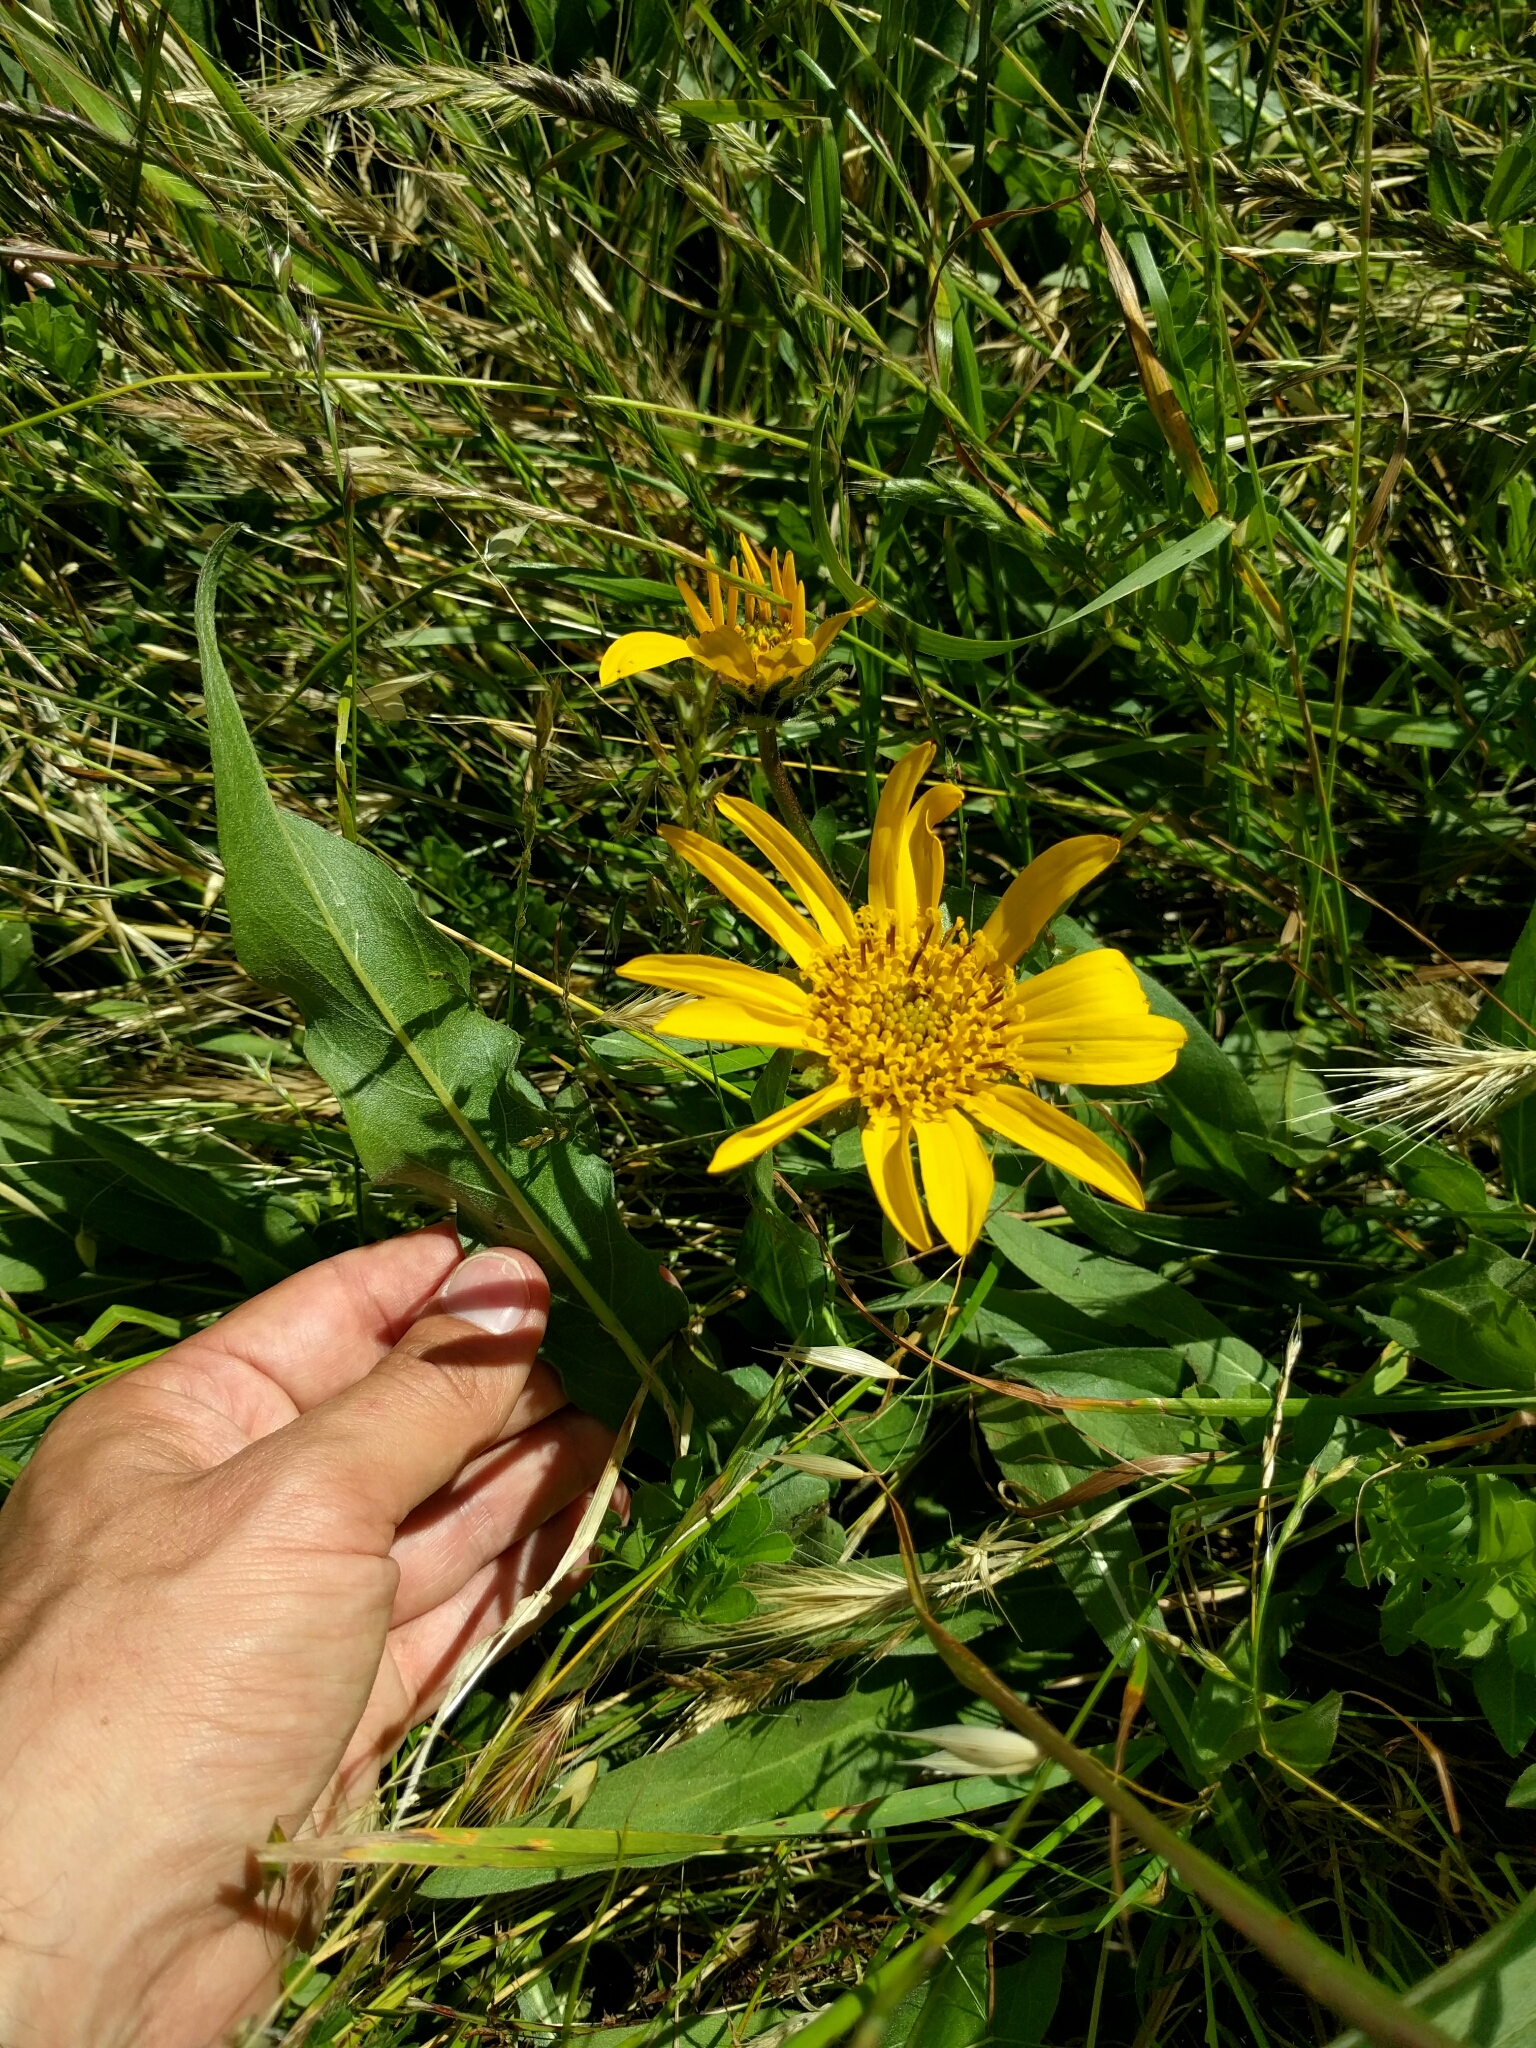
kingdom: Plantae
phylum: Tracheophyta
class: Magnoliopsida
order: Asterales
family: Asteraceae
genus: Wyethia
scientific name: Wyethia angustifolia
